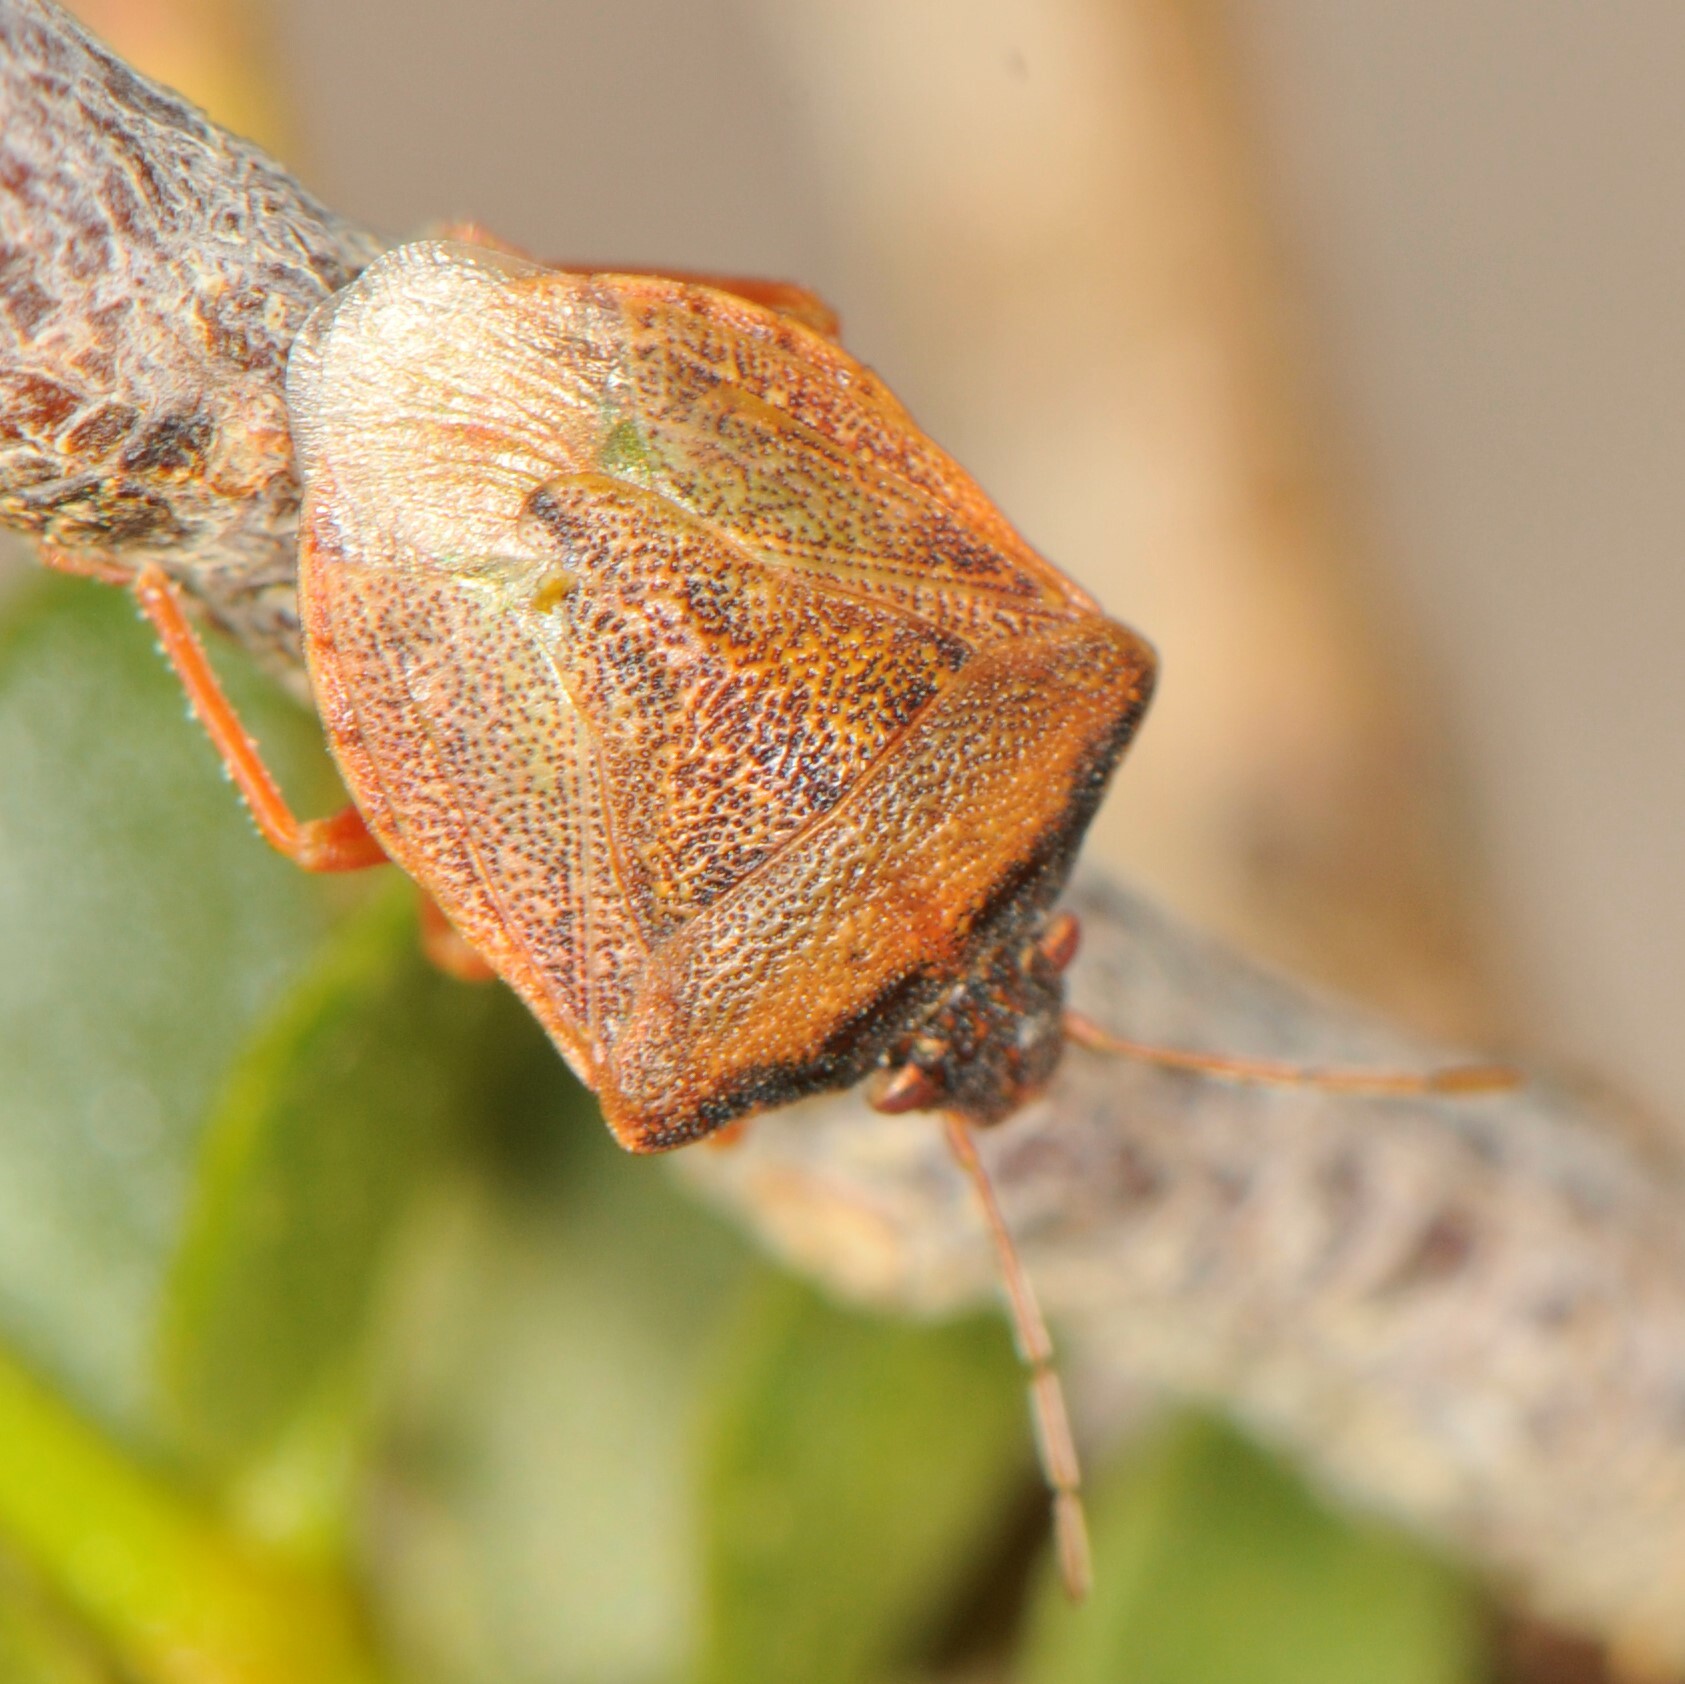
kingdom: Animalia
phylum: Arthropoda
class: Insecta
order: Hemiptera
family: Pentatomidae
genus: Dendrocoris
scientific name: Dendrocoris contaminatus
